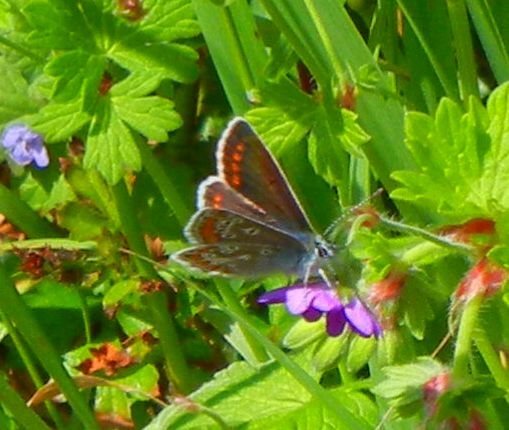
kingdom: Animalia
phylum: Arthropoda
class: Insecta
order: Lepidoptera
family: Lycaenidae
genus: Aricia
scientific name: Aricia agestis
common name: Brown argus
